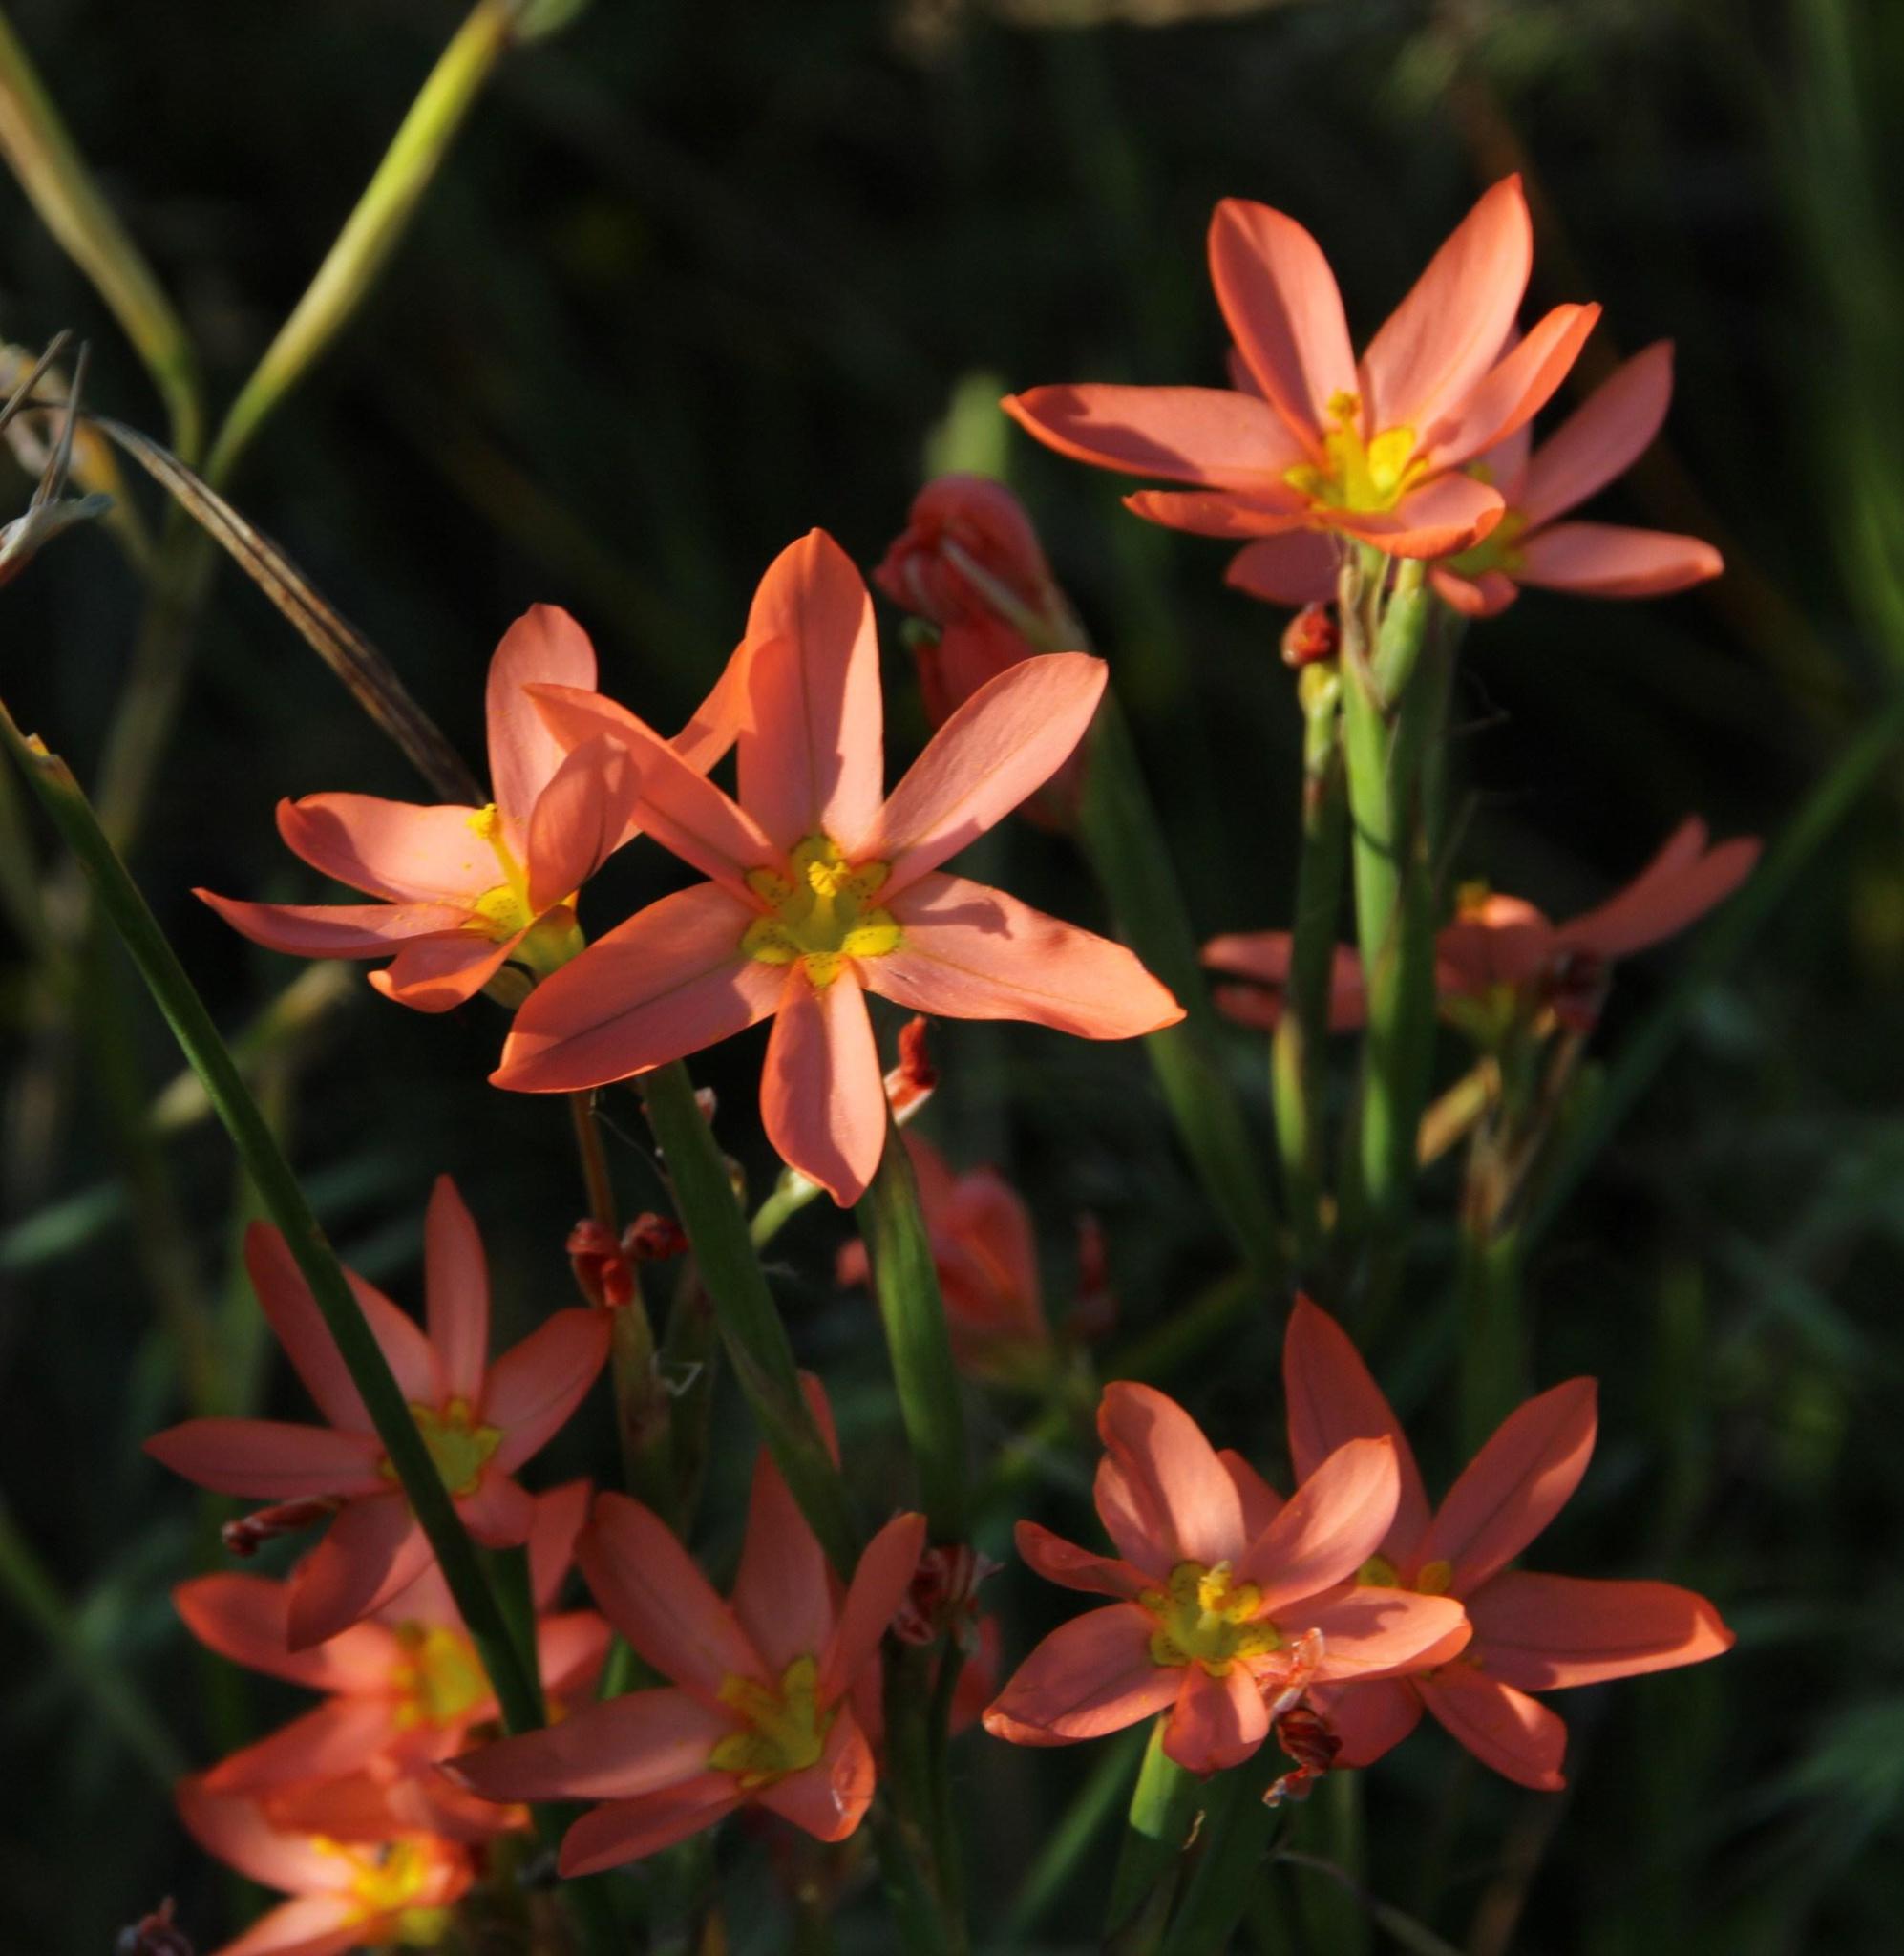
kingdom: Plantae
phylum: Tracheophyta
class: Liliopsida
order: Asparagales
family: Iridaceae
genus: Moraea
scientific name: Moraea miniata
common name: Two-leaf cape-tulip
